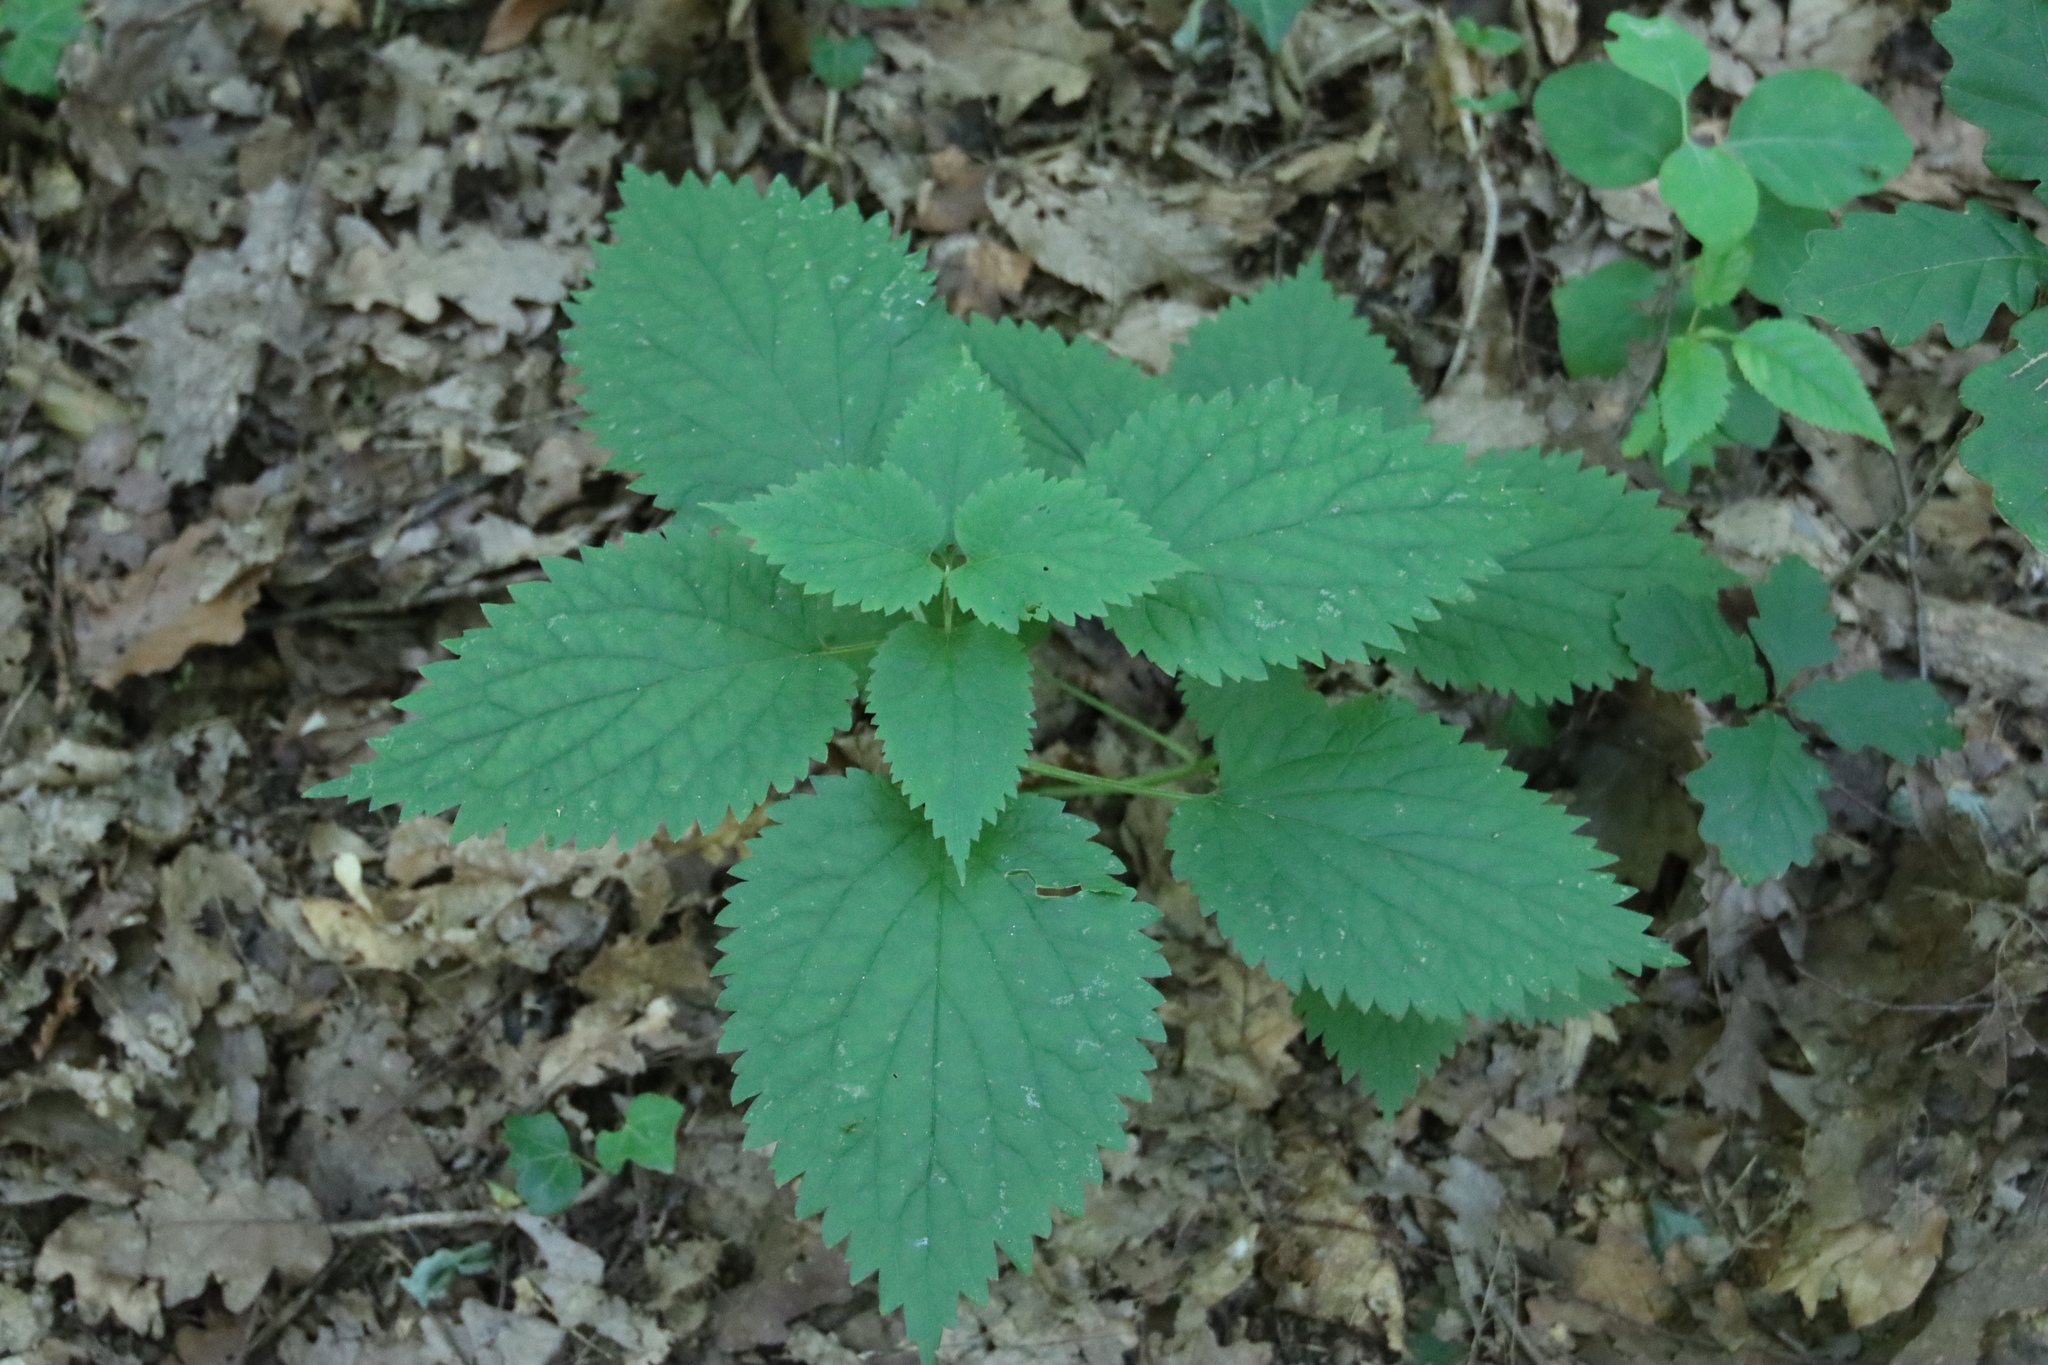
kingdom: Plantae
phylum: Tracheophyta
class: Magnoliopsida
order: Lamiales
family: Lamiaceae
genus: Lamium
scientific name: Lamium orvala
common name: Balm-leaved archangel
